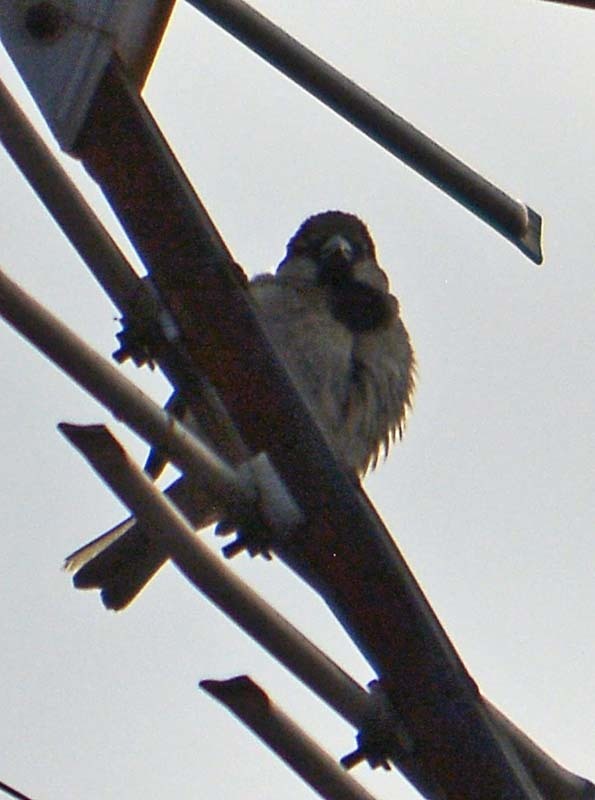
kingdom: Animalia
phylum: Chordata
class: Aves
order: Passeriformes
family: Passeridae
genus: Passer
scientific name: Passer domesticus
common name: House sparrow
